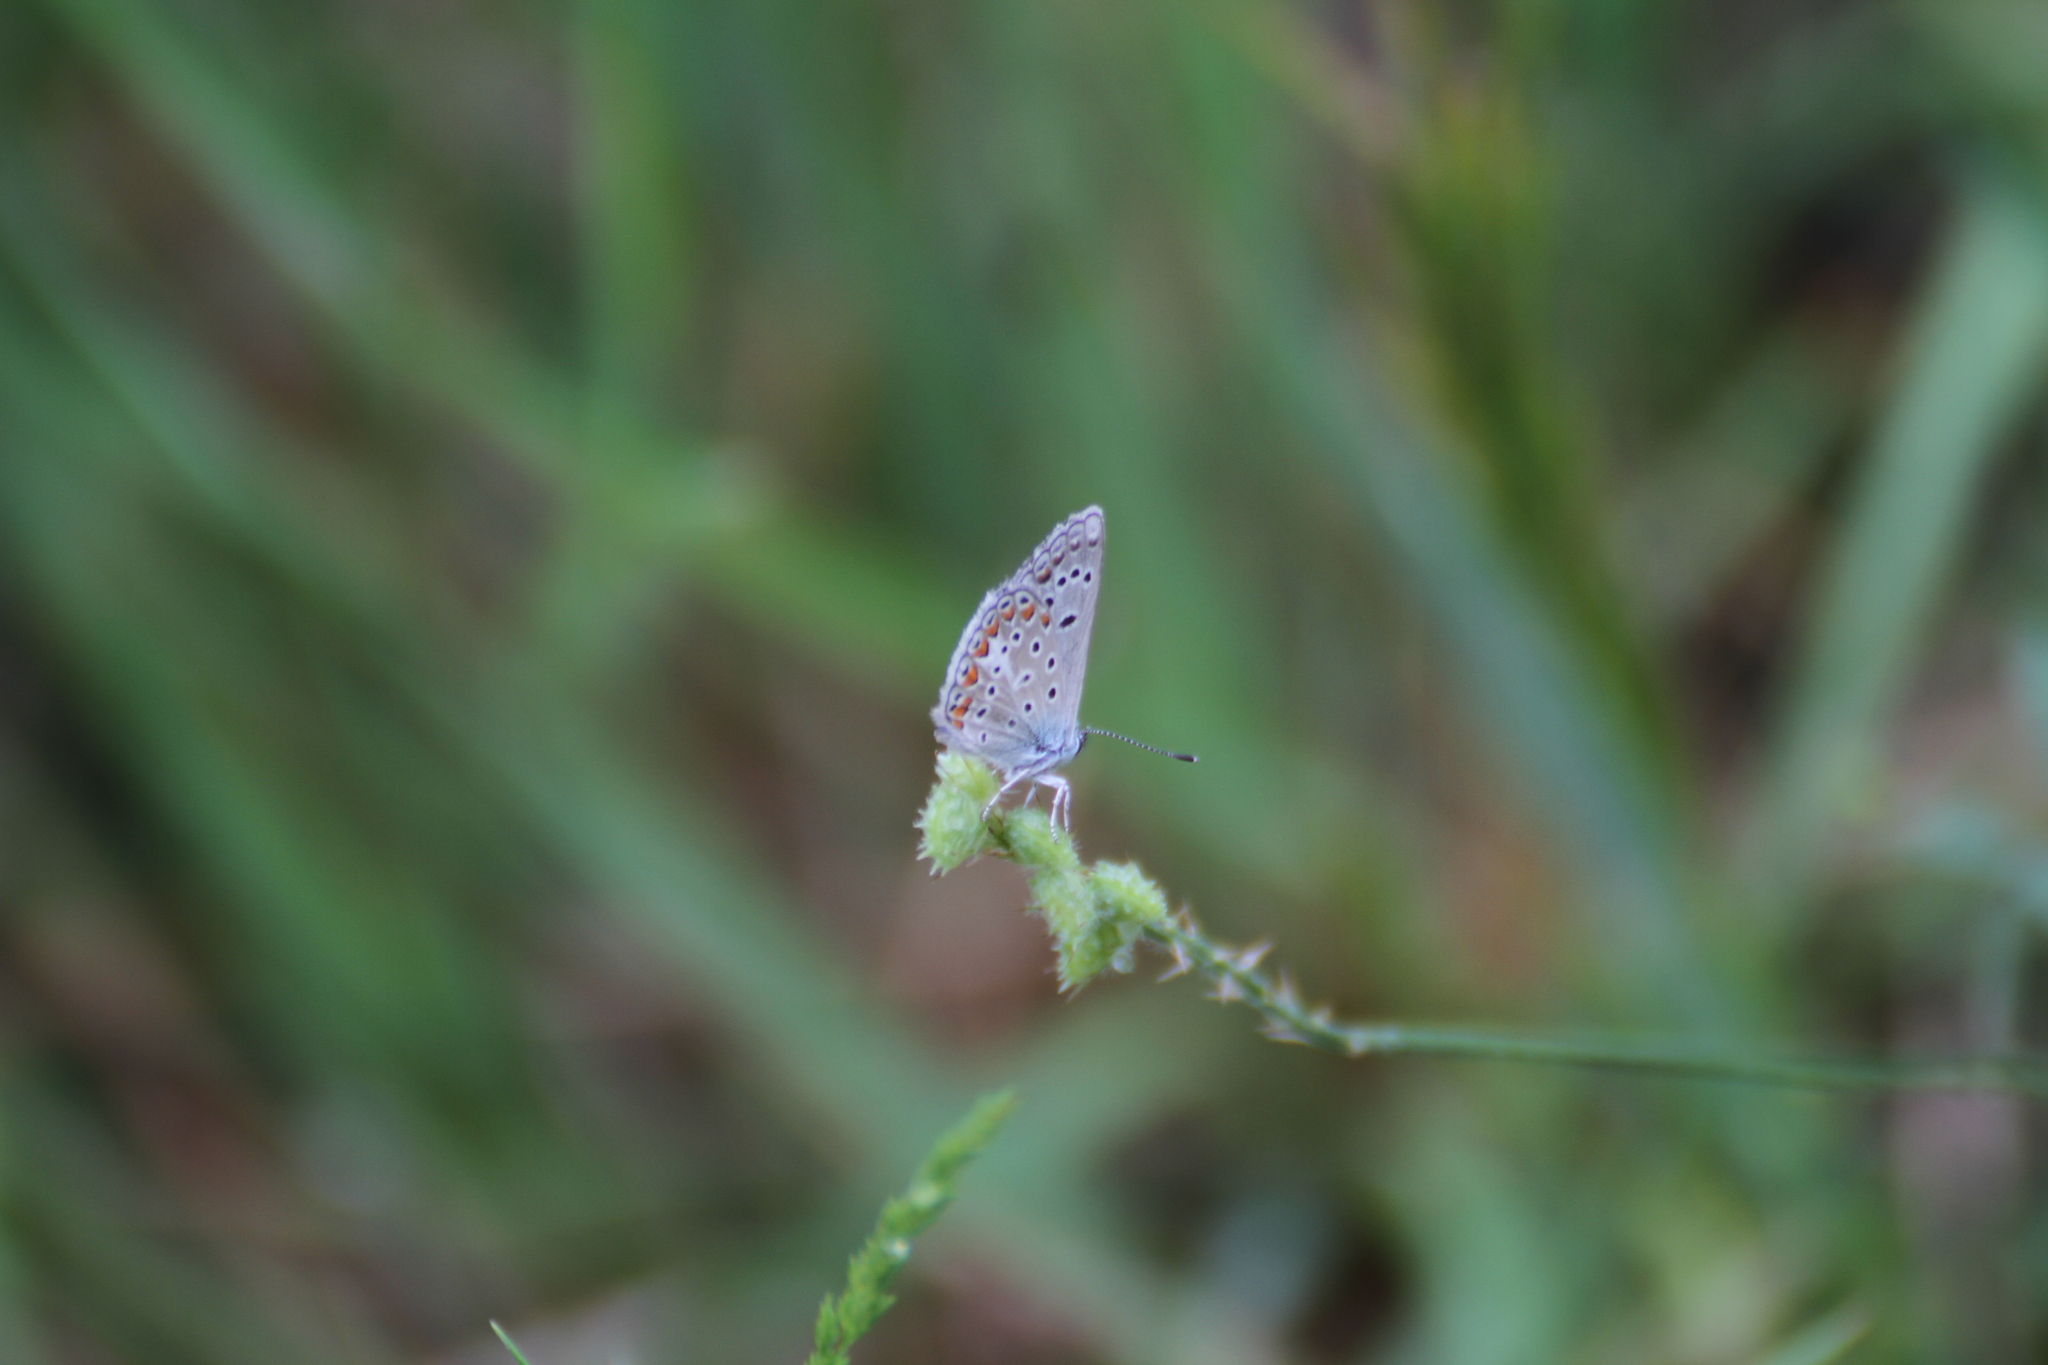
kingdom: Animalia
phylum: Arthropoda
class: Insecta
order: Lepidoptera
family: Lycaenidae
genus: Polyommatus
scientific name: Polyommatus icarus
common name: Common blue
